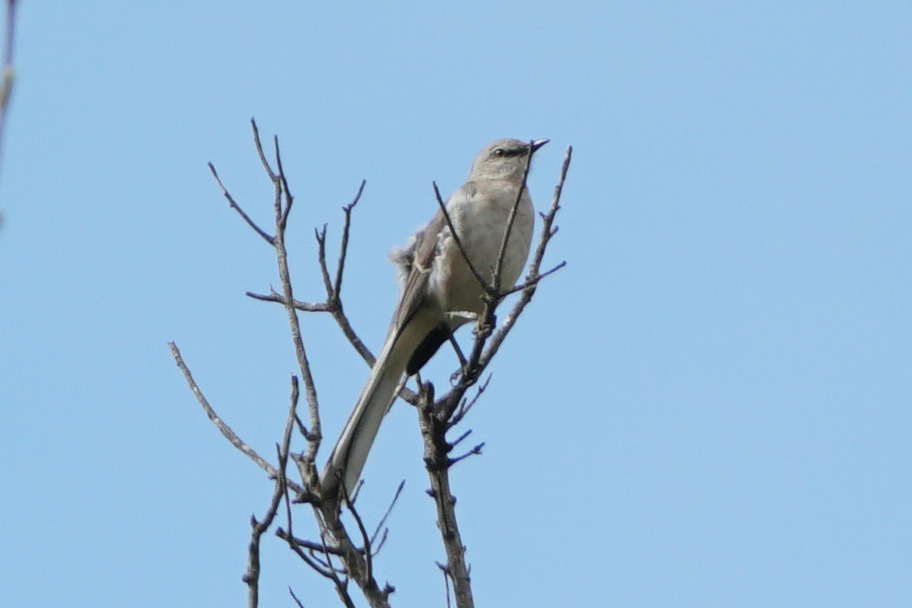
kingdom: Animalia
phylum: Chordata
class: Aves
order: Passeriformes
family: Mimidae
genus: Mimus
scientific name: Mimus polyglottos
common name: Northern mockingbird
